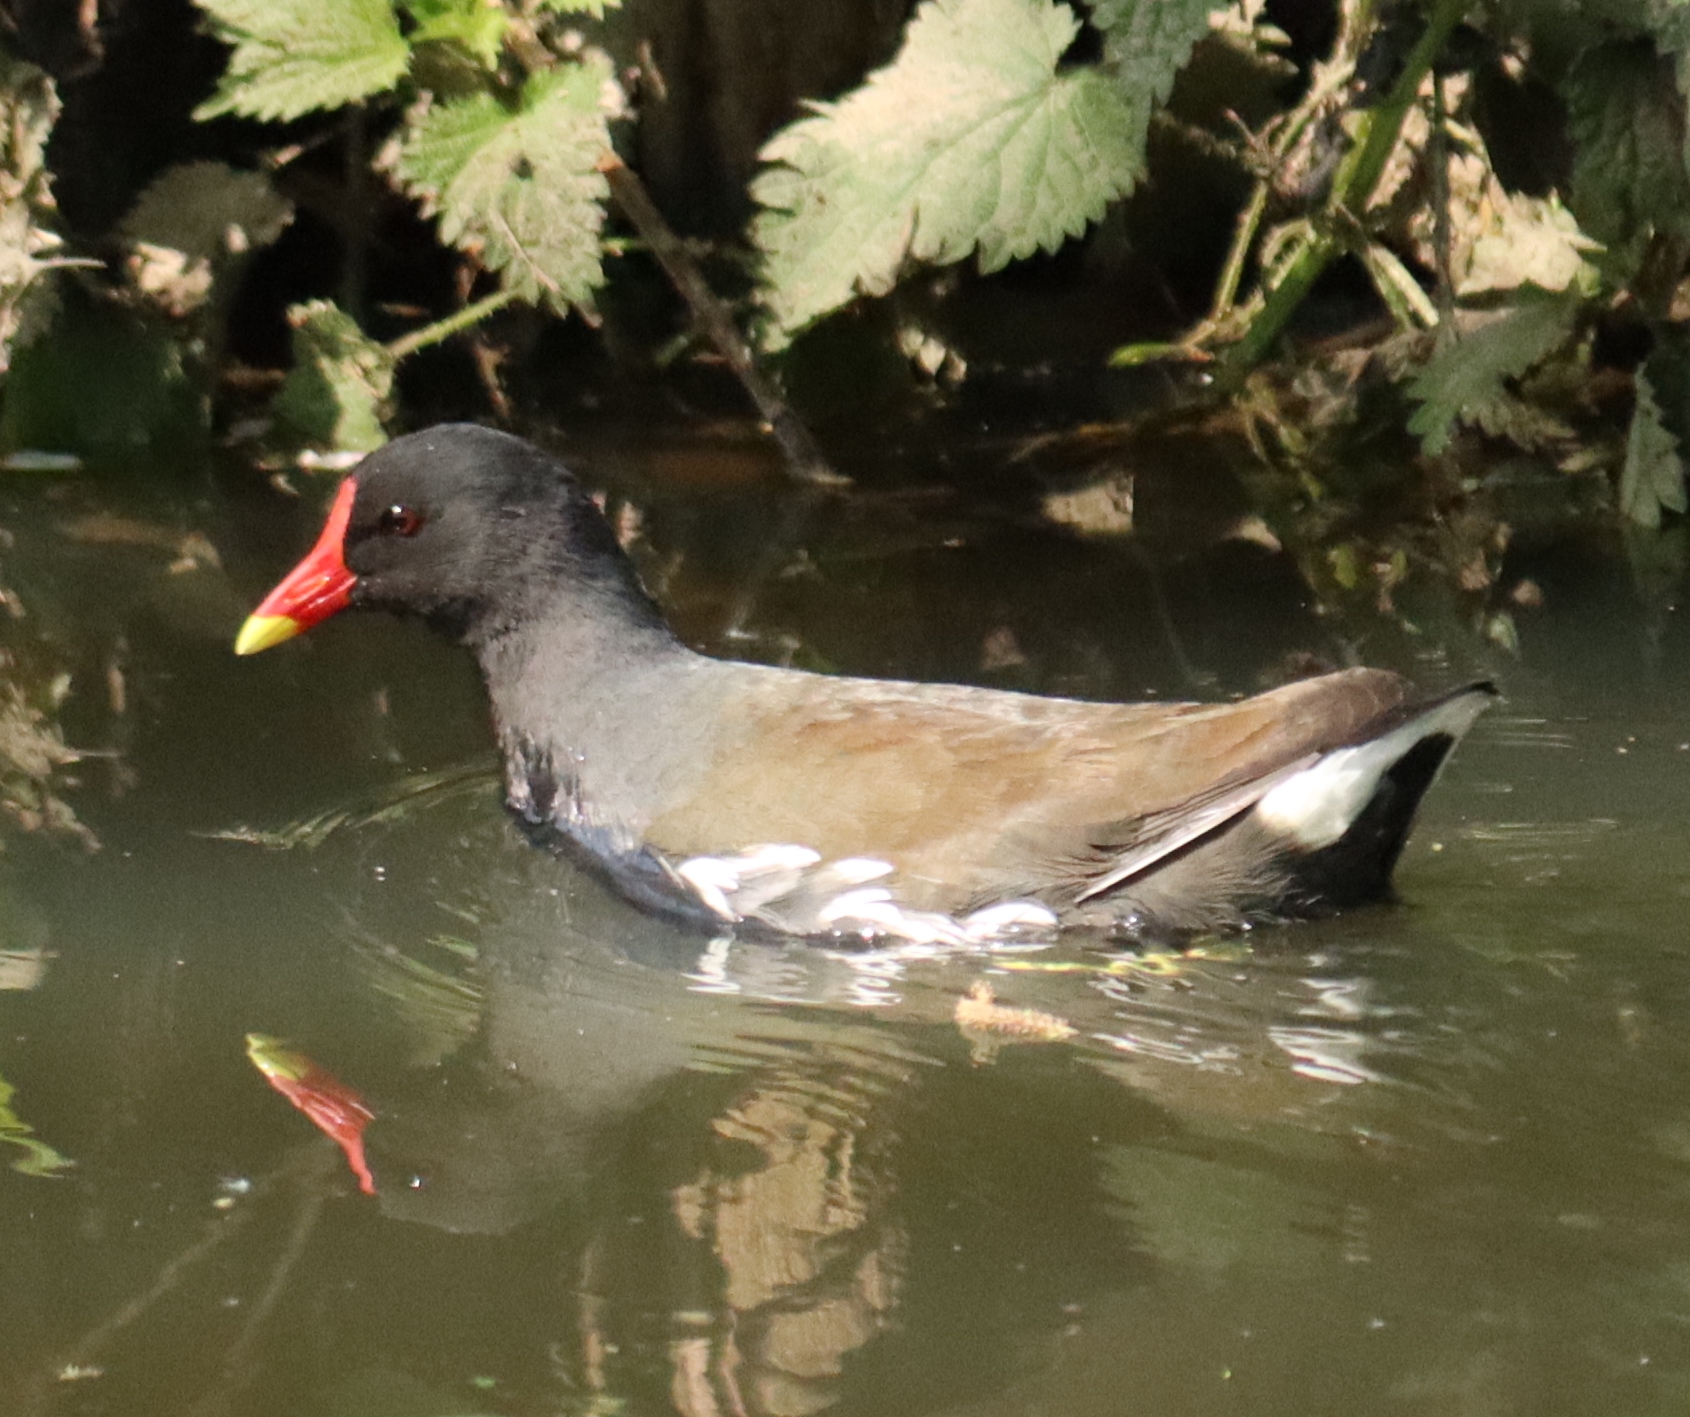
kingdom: Animalia
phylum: Chordata
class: Aves
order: Gruiformes
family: Rallidae
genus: Gallinula
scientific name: Gallinula chloropus
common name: Common moorhen
